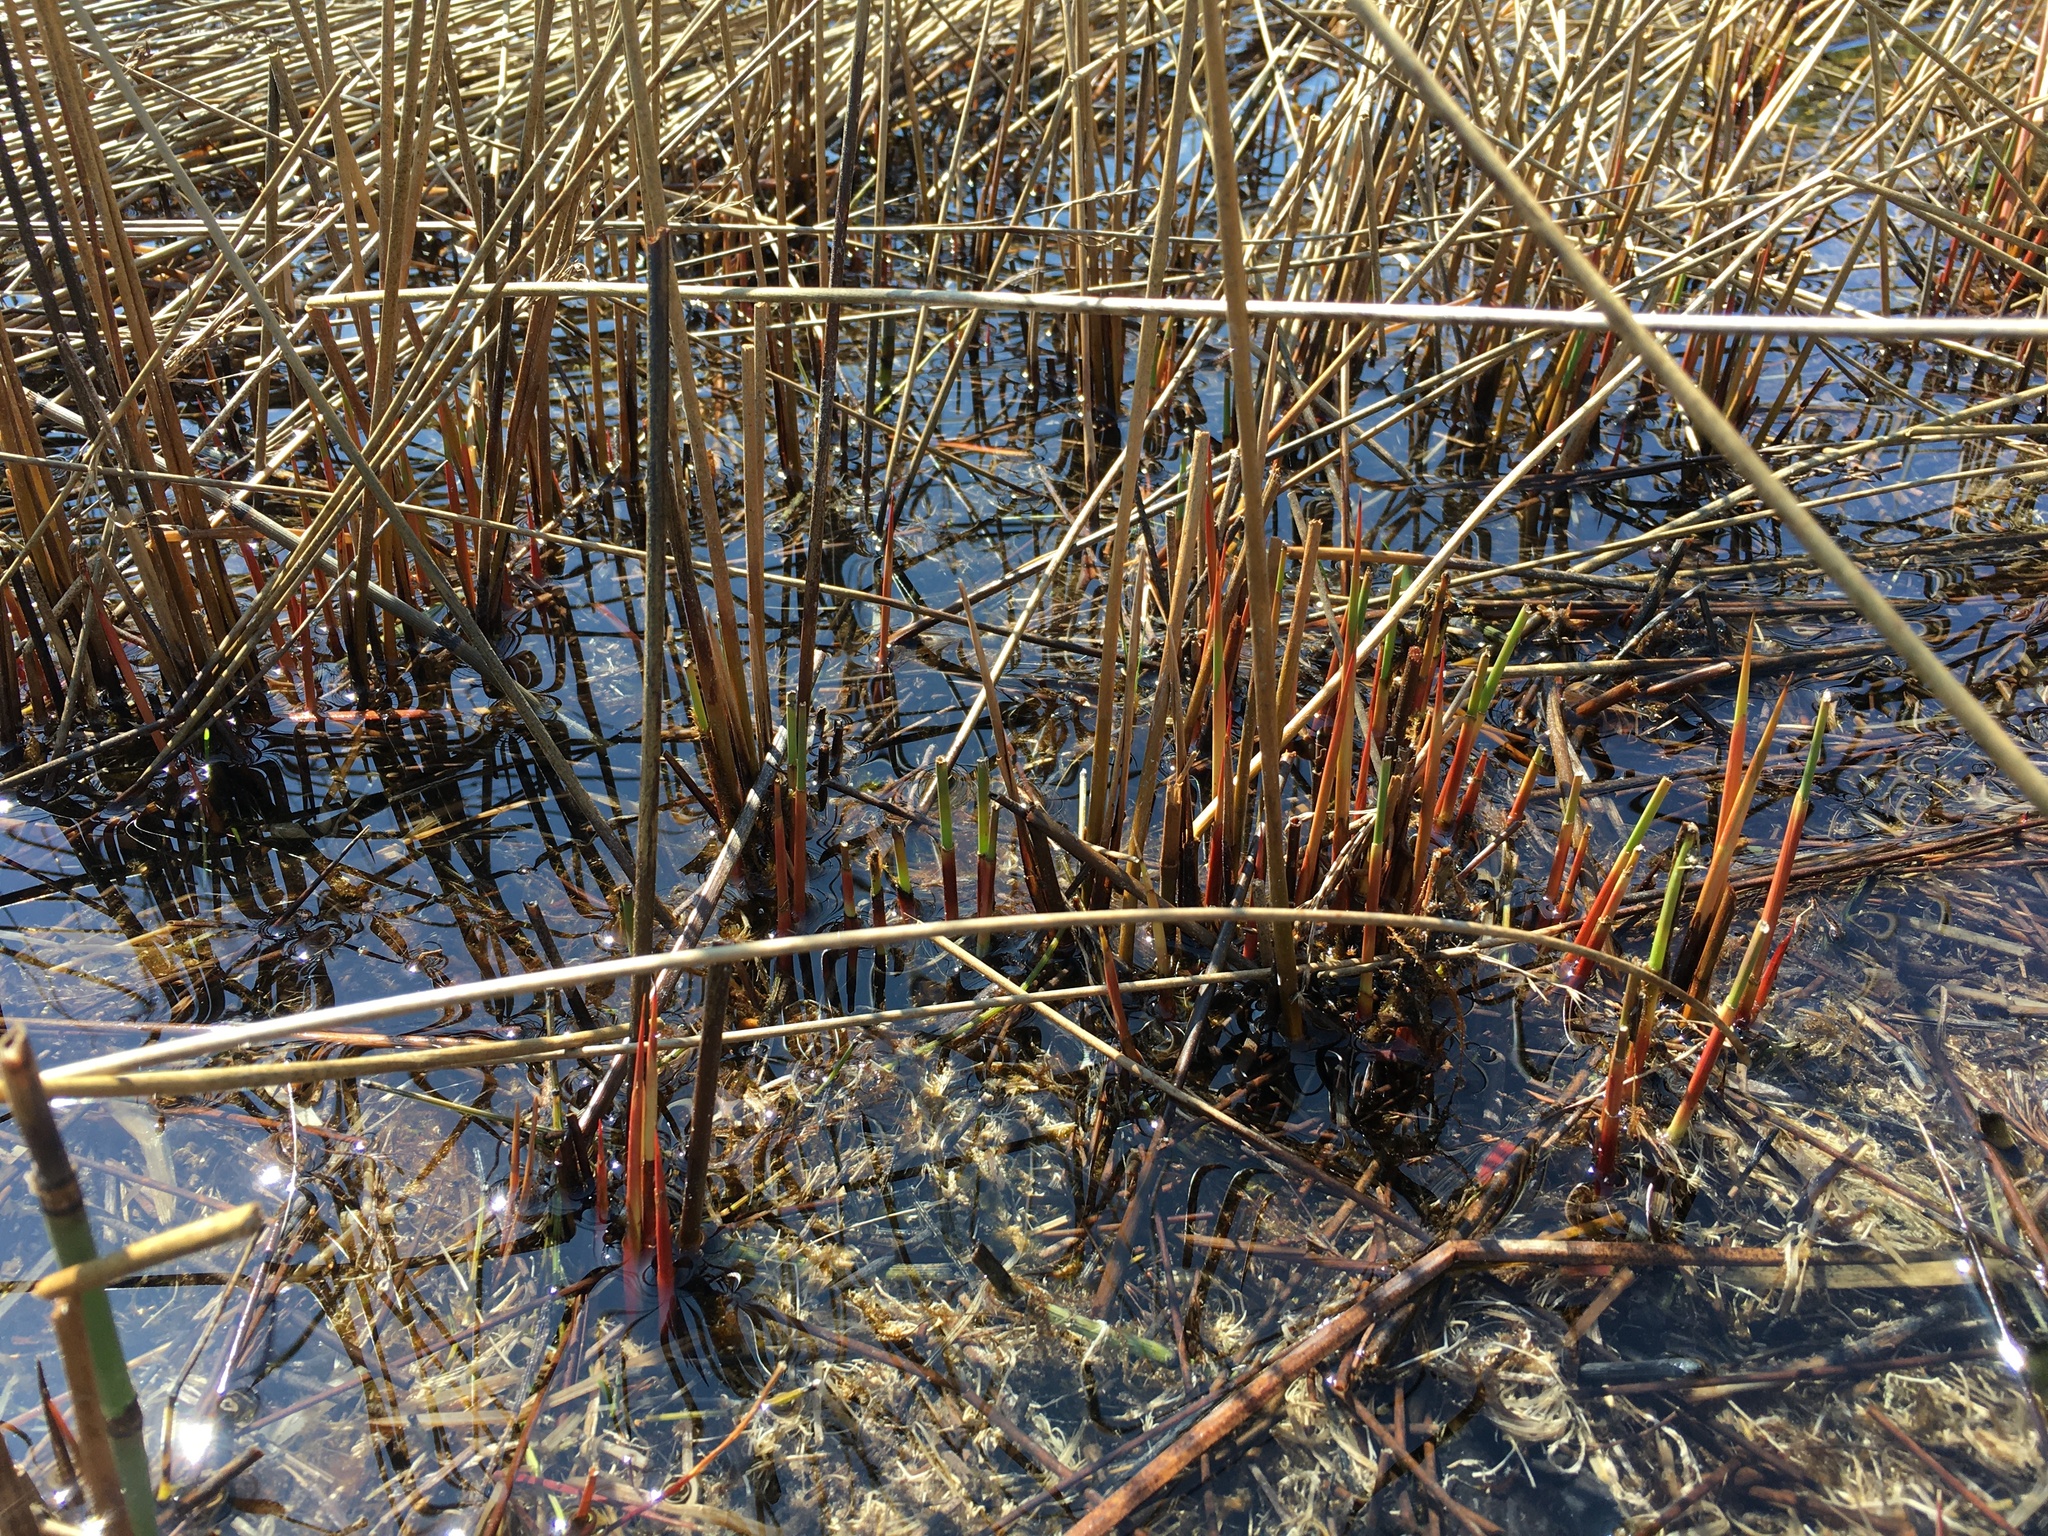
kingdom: Plantae
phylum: Tracheophyta
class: Liliopsida
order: Poales
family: Juncaceae
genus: Juncus
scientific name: Juncus balticus
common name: Baltic rush
